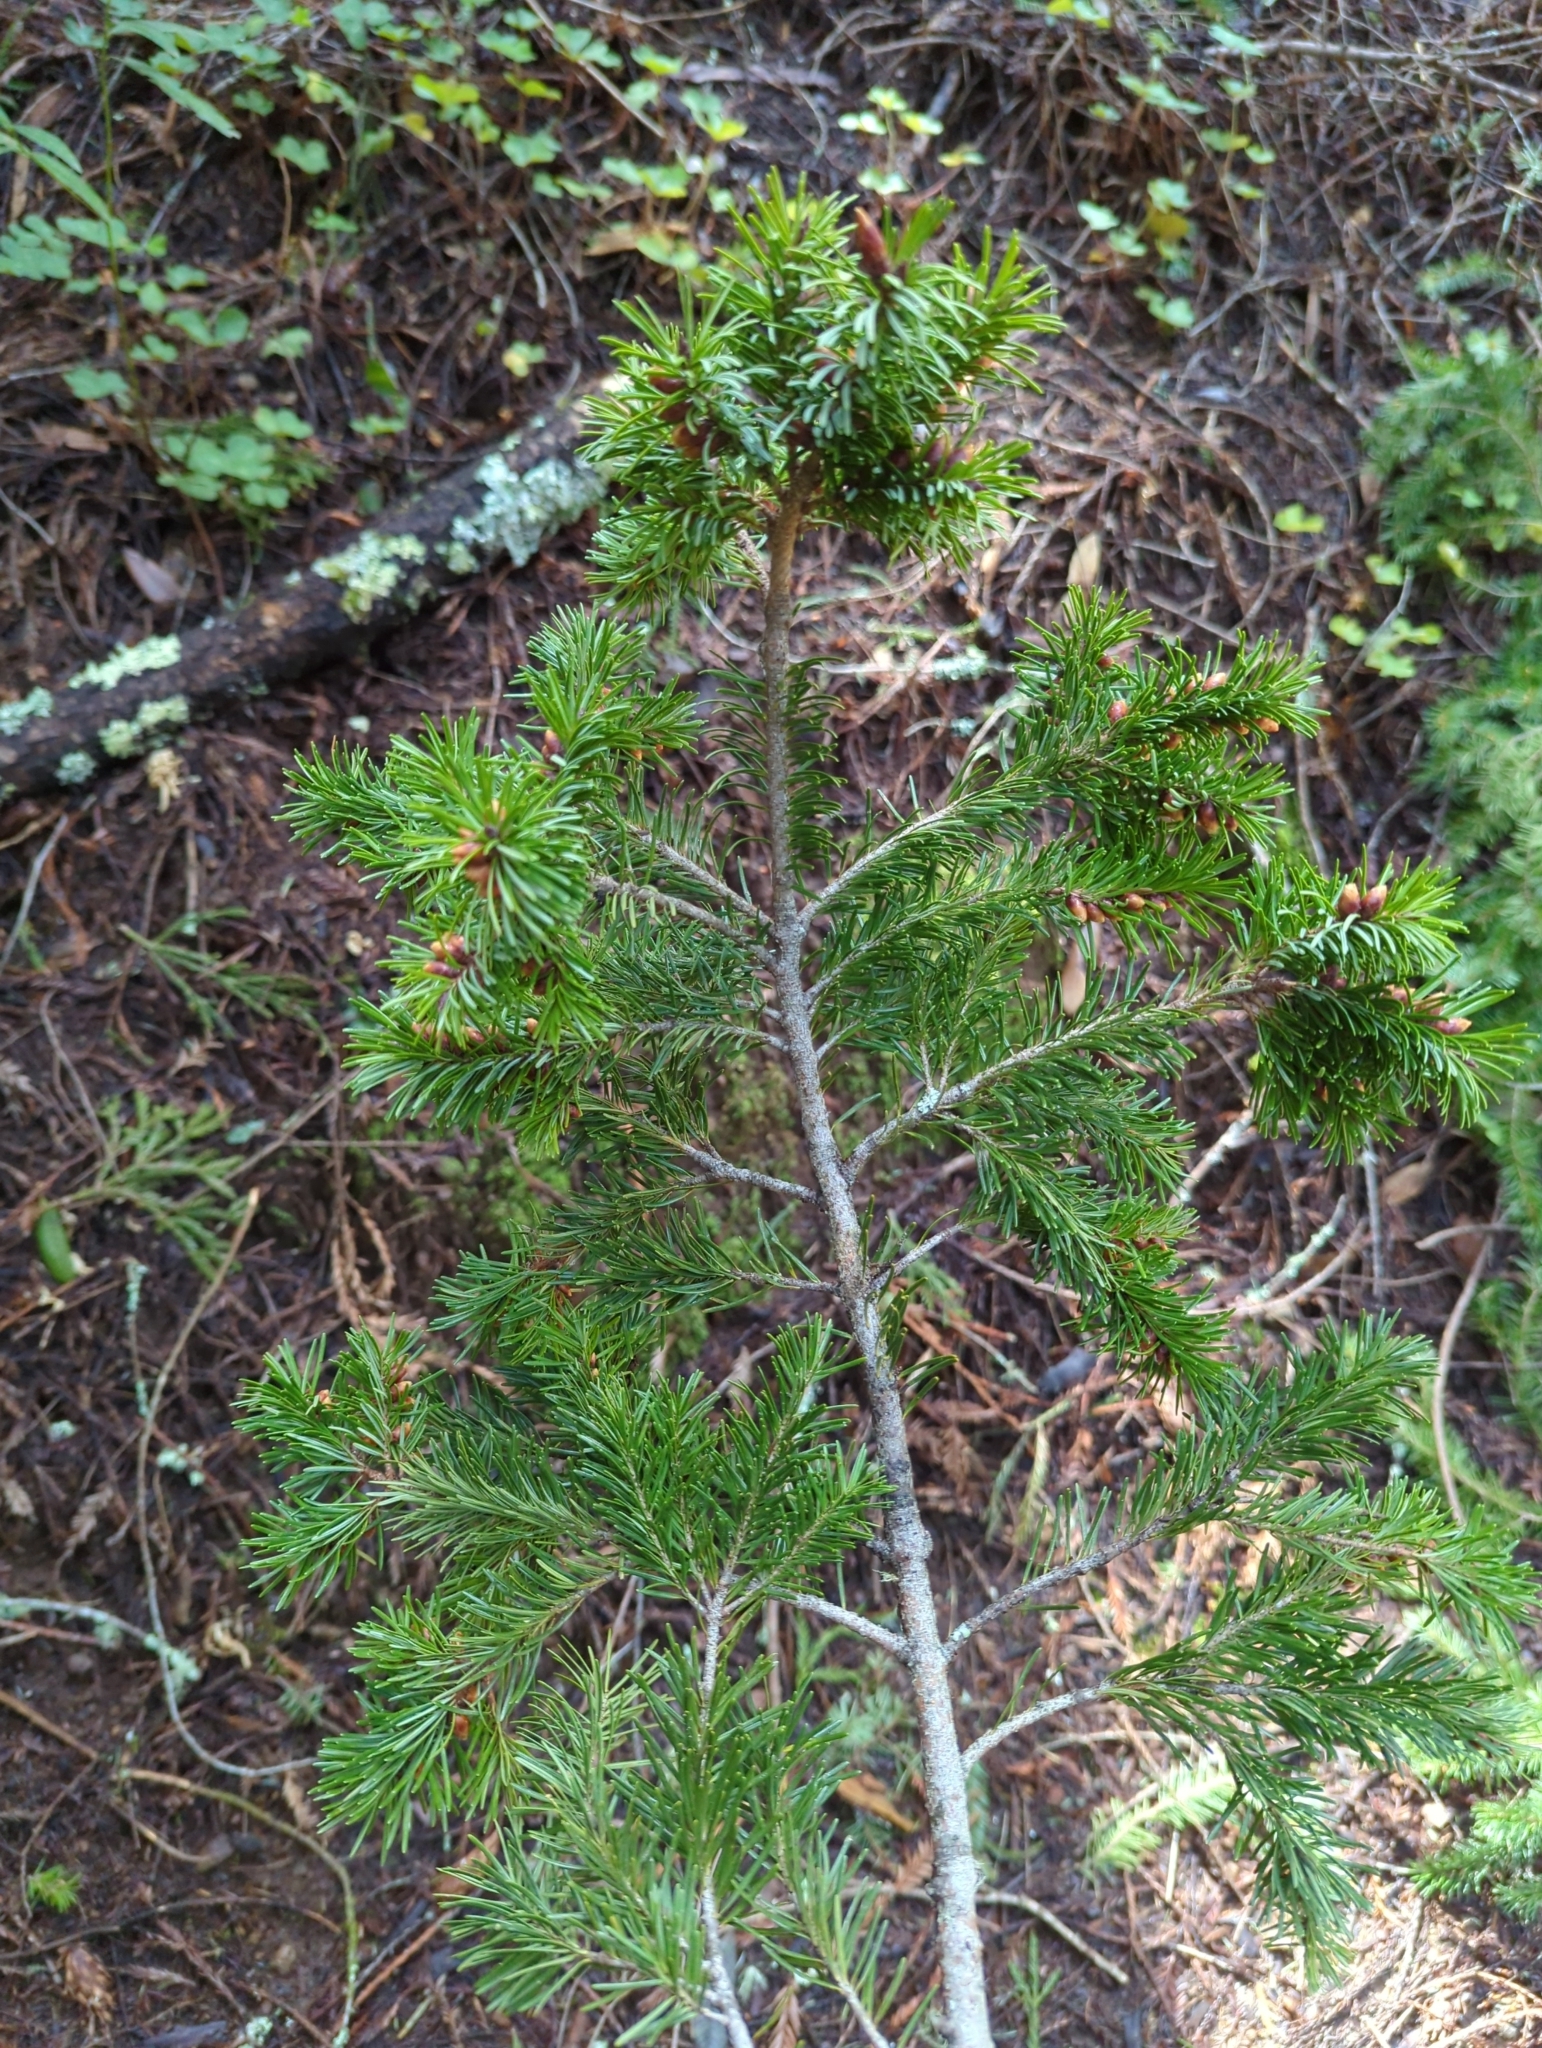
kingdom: Plantae
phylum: Tracheophyta
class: Pinopsida
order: Pinales
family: Pinaceae
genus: Pseudotsuga
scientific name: Pseudotsuga menziesii
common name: Douglas fir
